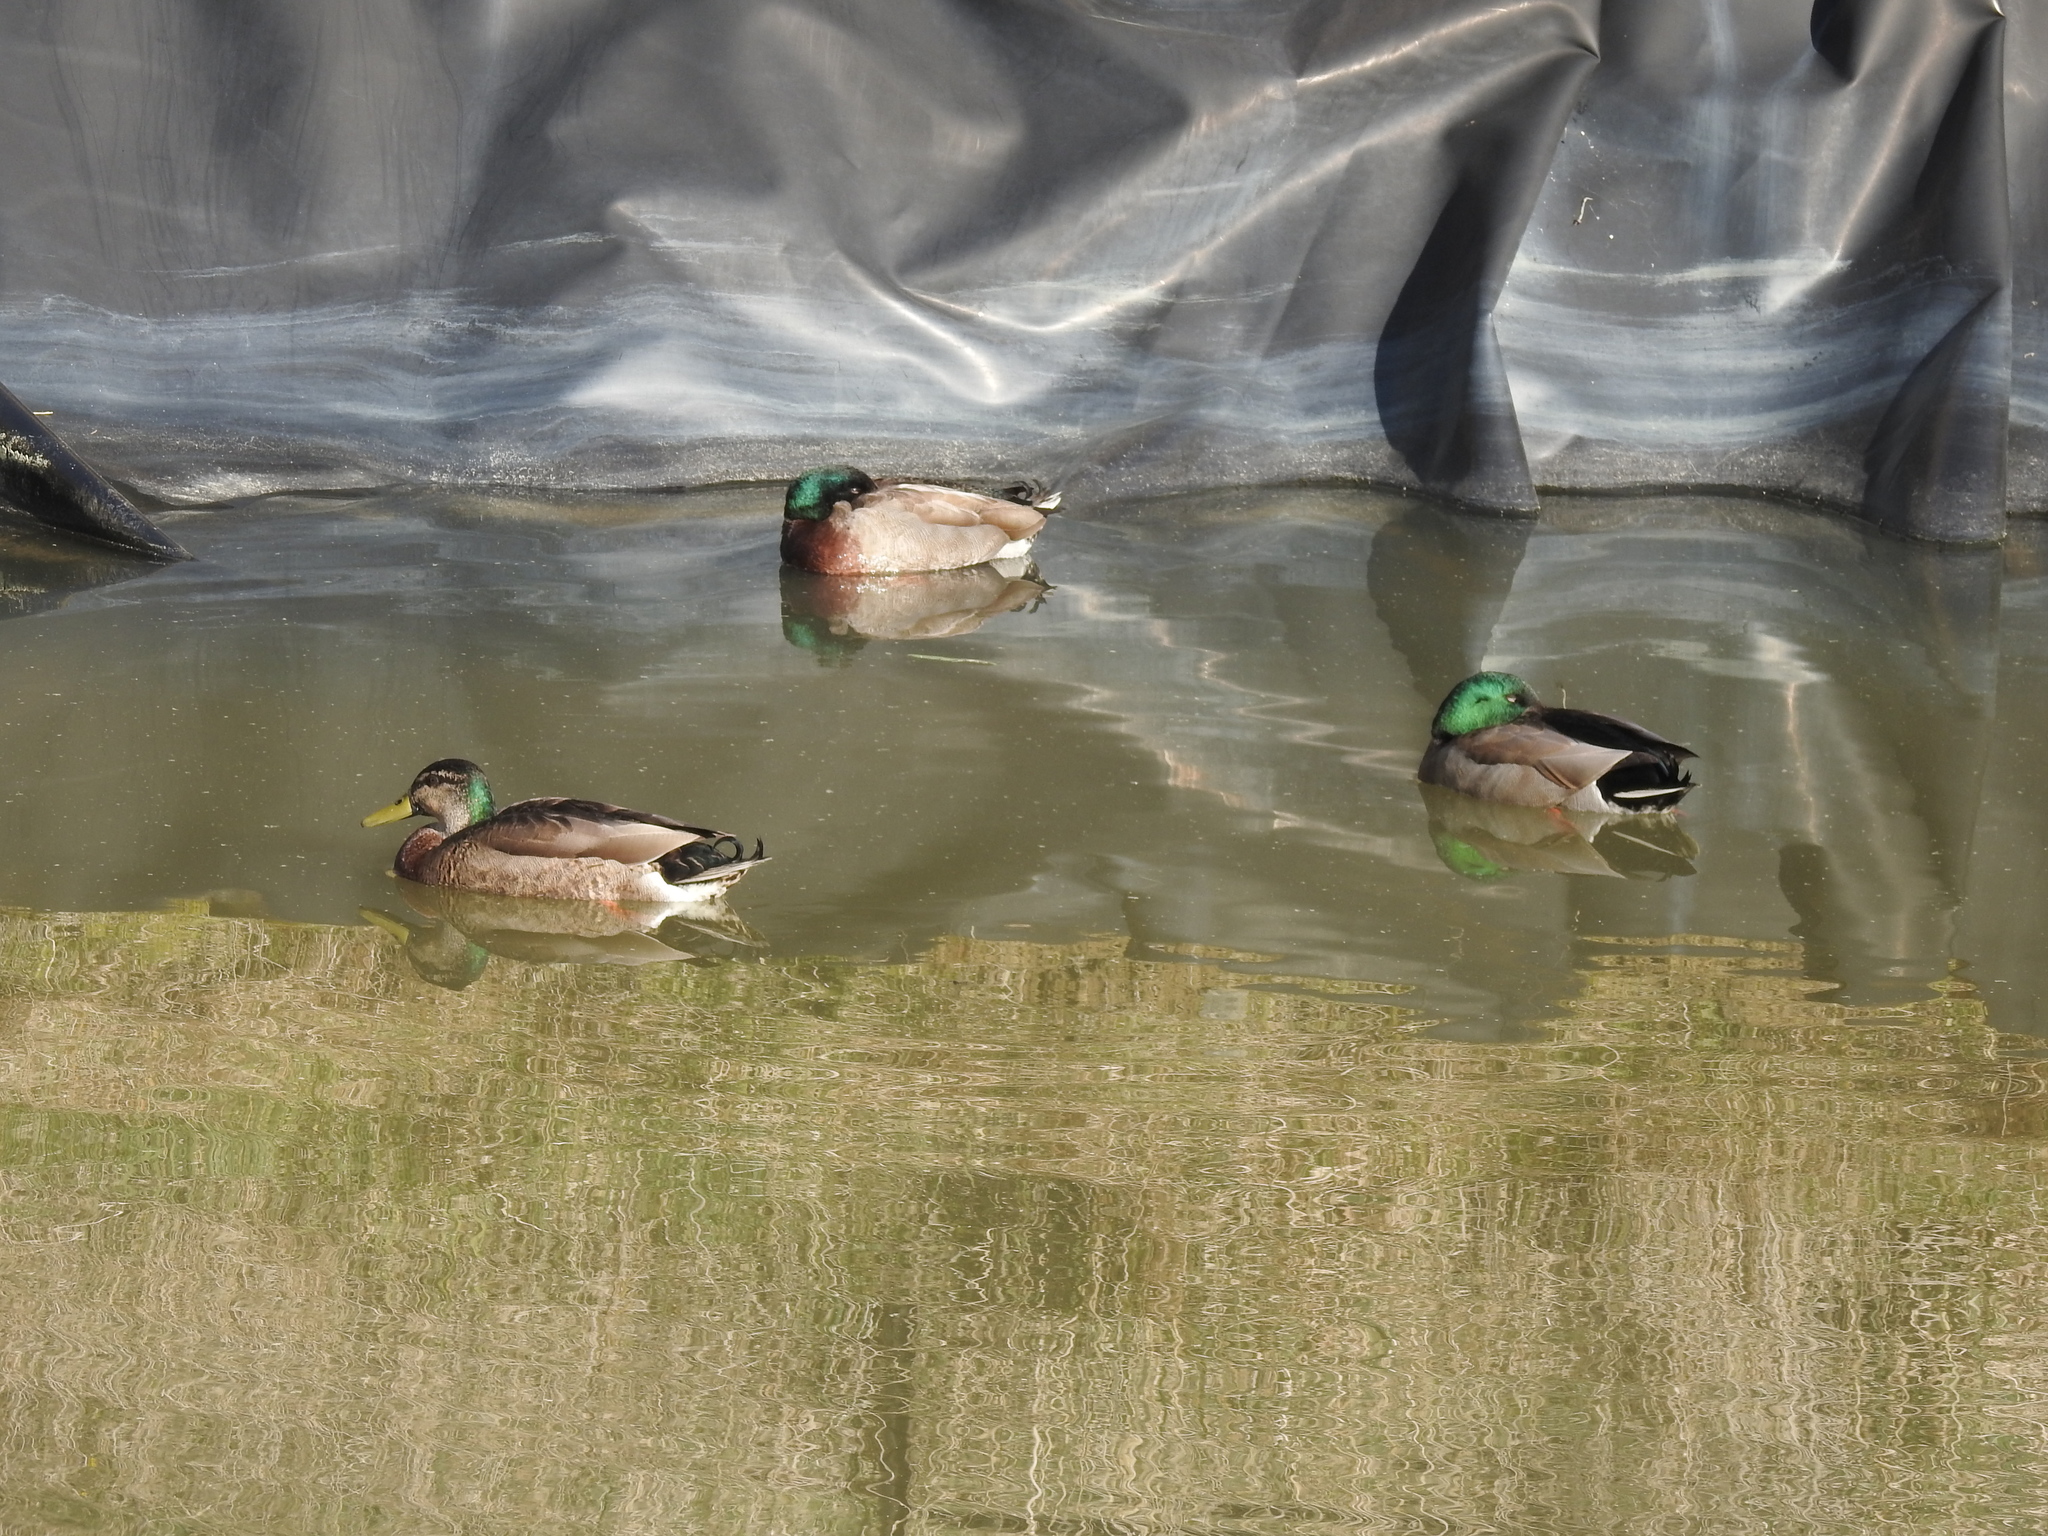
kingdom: Animalia
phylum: Chordata
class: Aves
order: Anseriformes
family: Anatidae
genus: Anas
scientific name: Anas platyrhynchos
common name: Mallard
